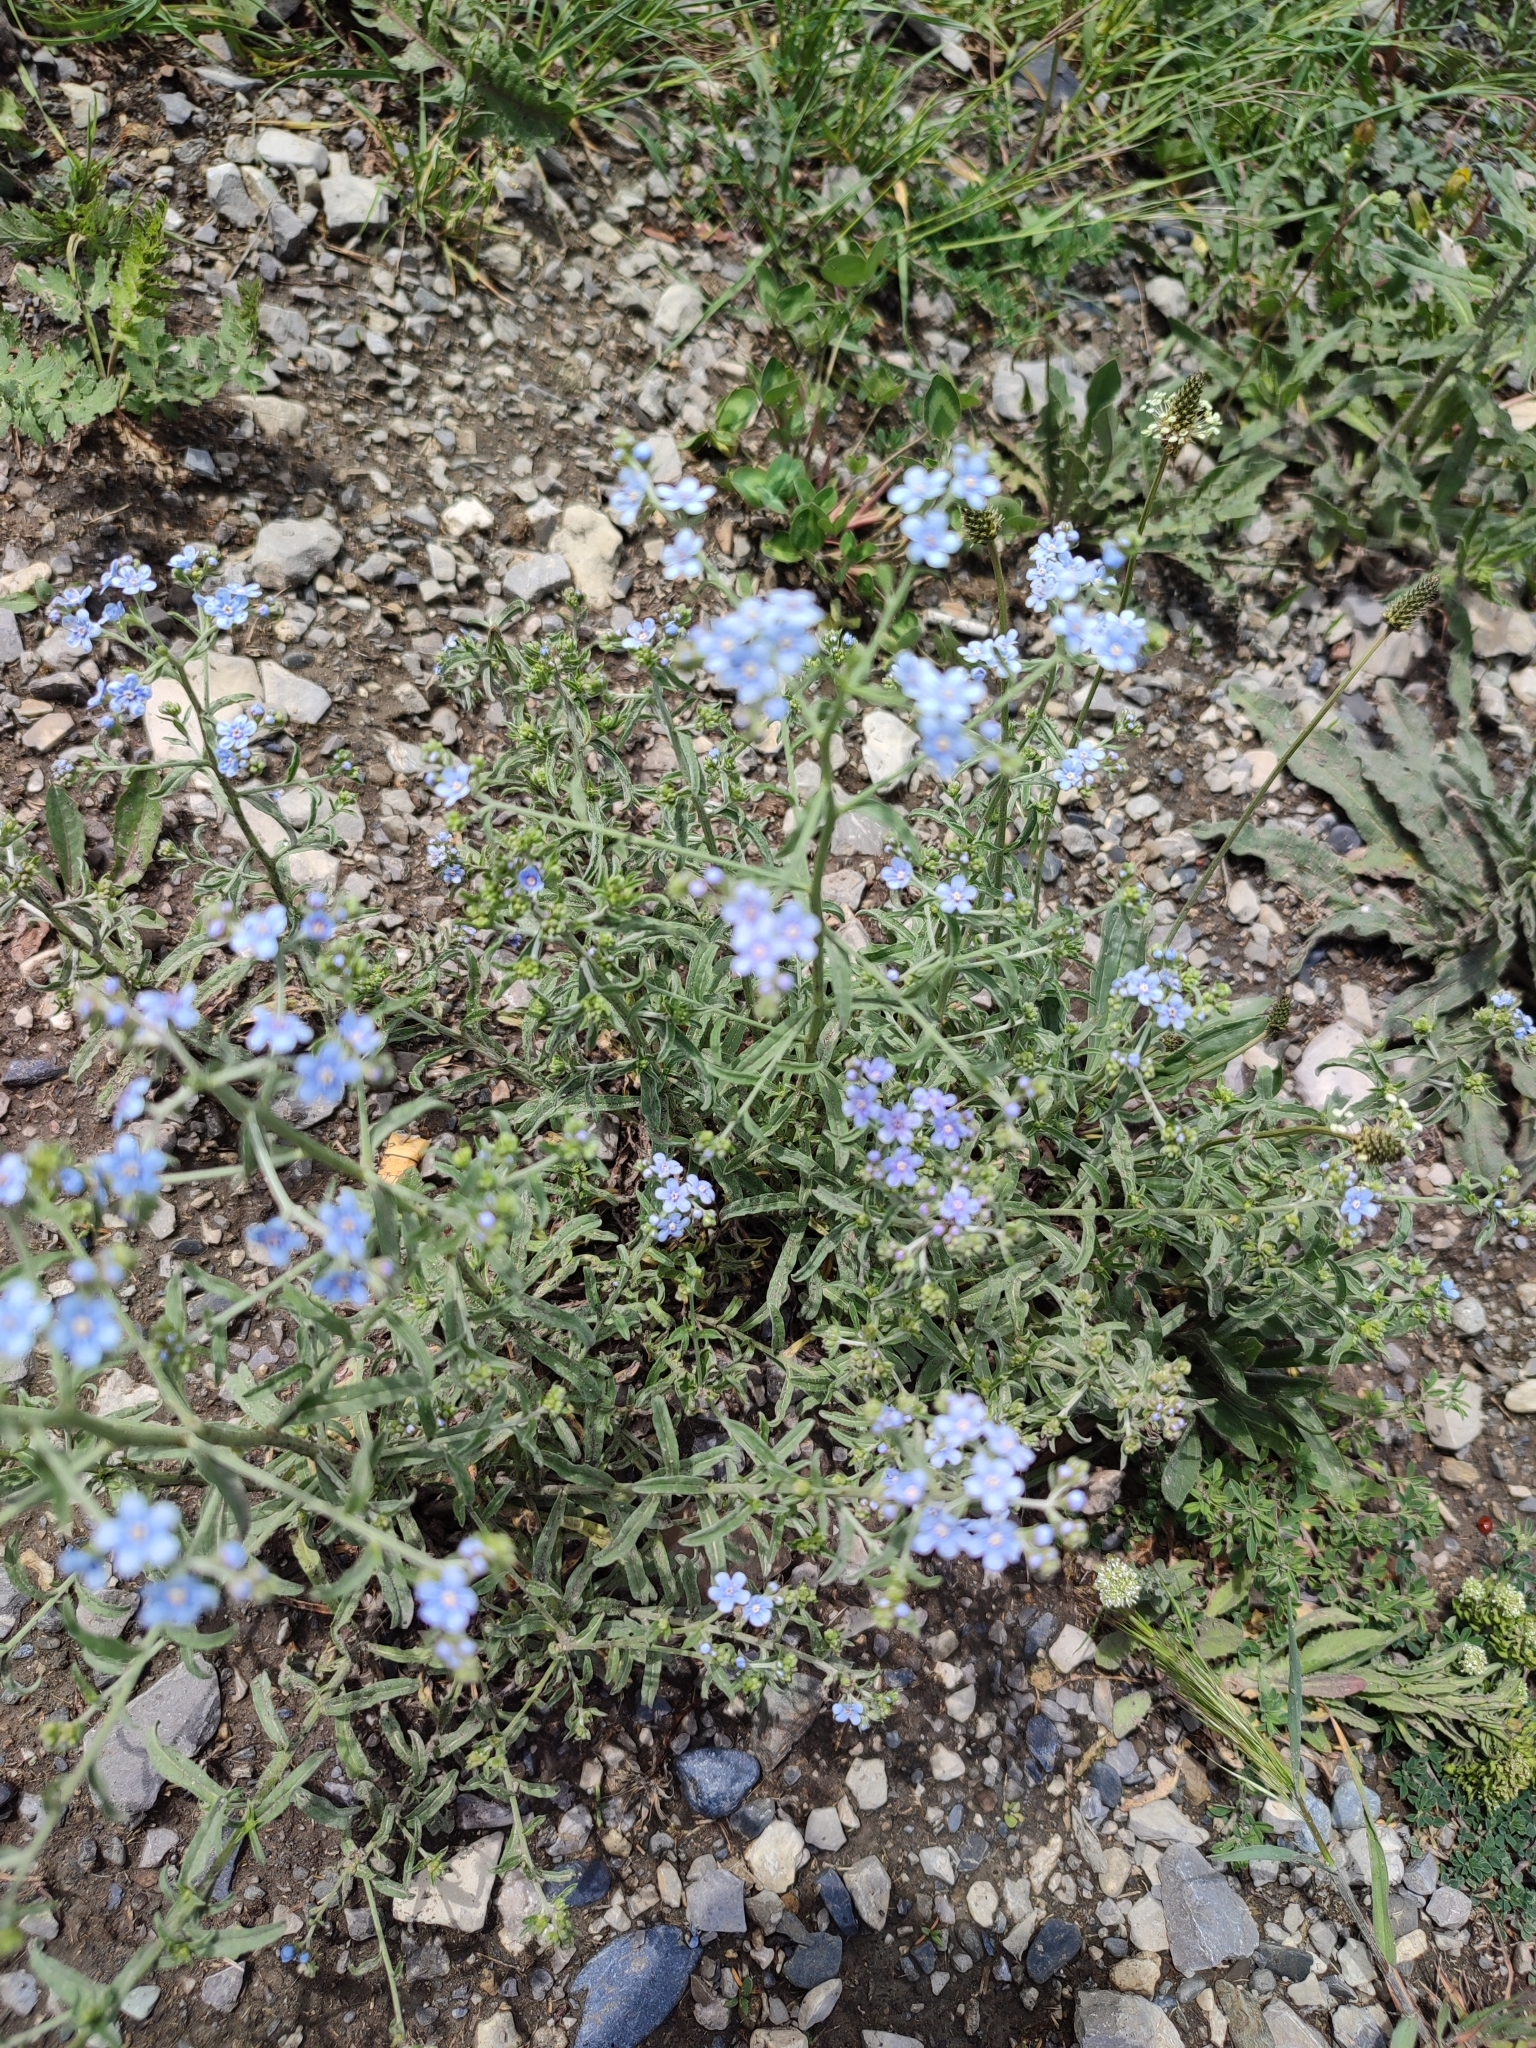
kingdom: Plantae
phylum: Tracheophyta
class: Magnoliopsida
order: Boraginales
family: Boraginaceae
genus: Lappula
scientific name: Lappula barbata
